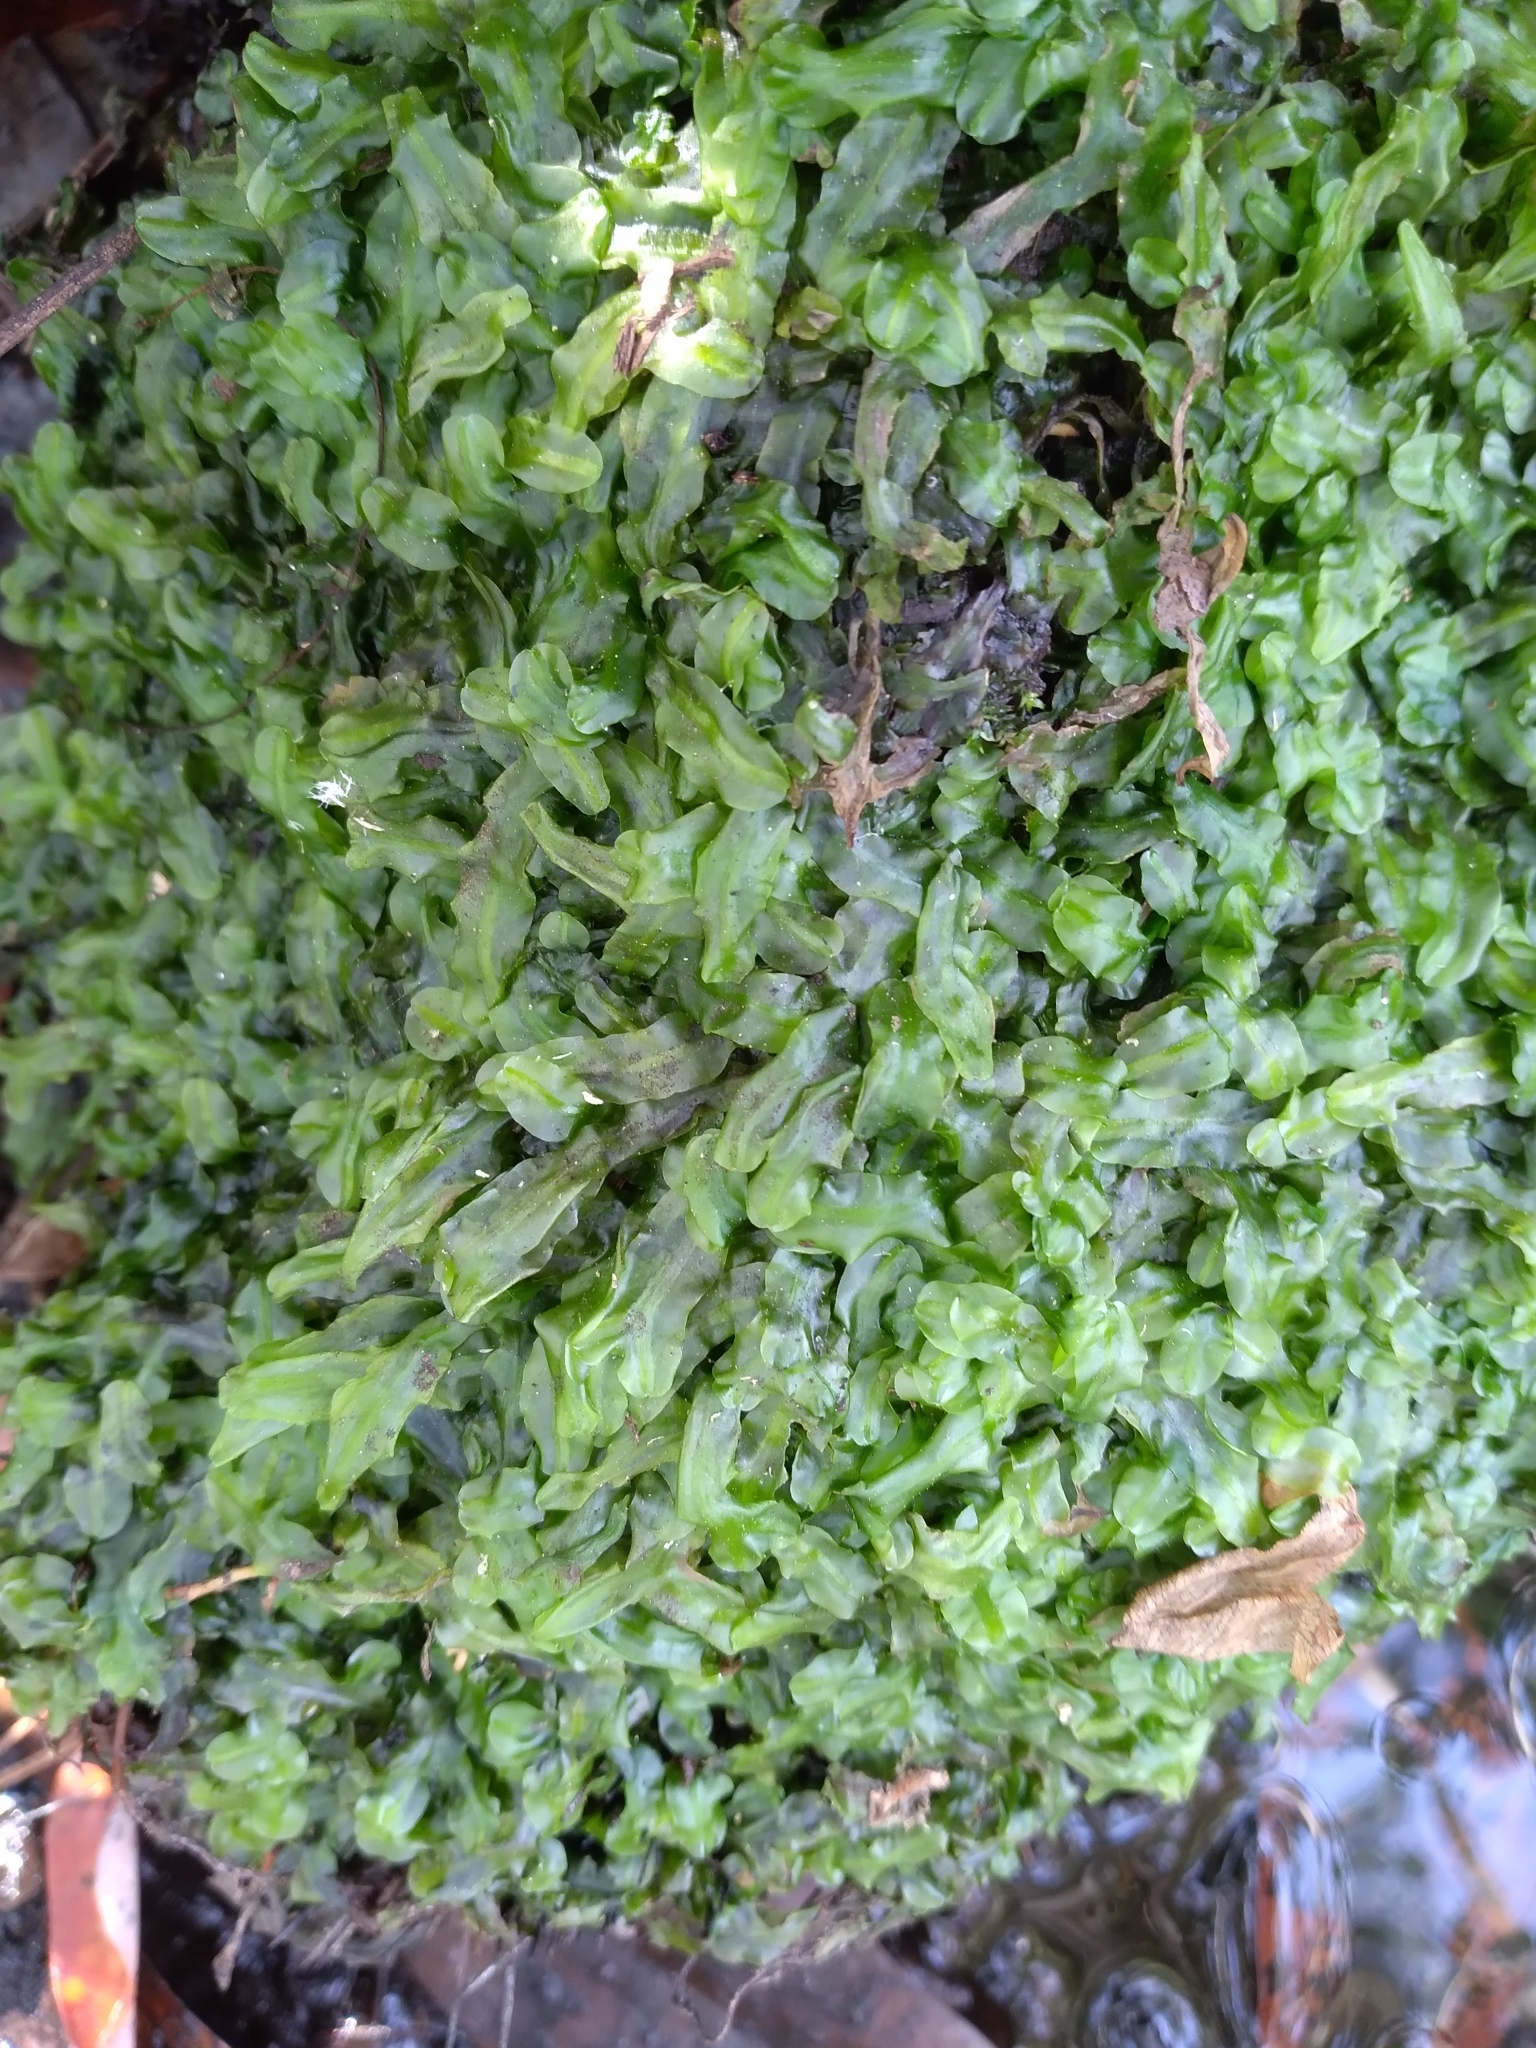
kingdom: Plantae
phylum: Marchantiophyta
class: Jungermanniopsida
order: Pallaviciniales
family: Pallaviciniaceae
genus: Pallavicinia
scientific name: Pallavicinia lyellii
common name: Veilwort
